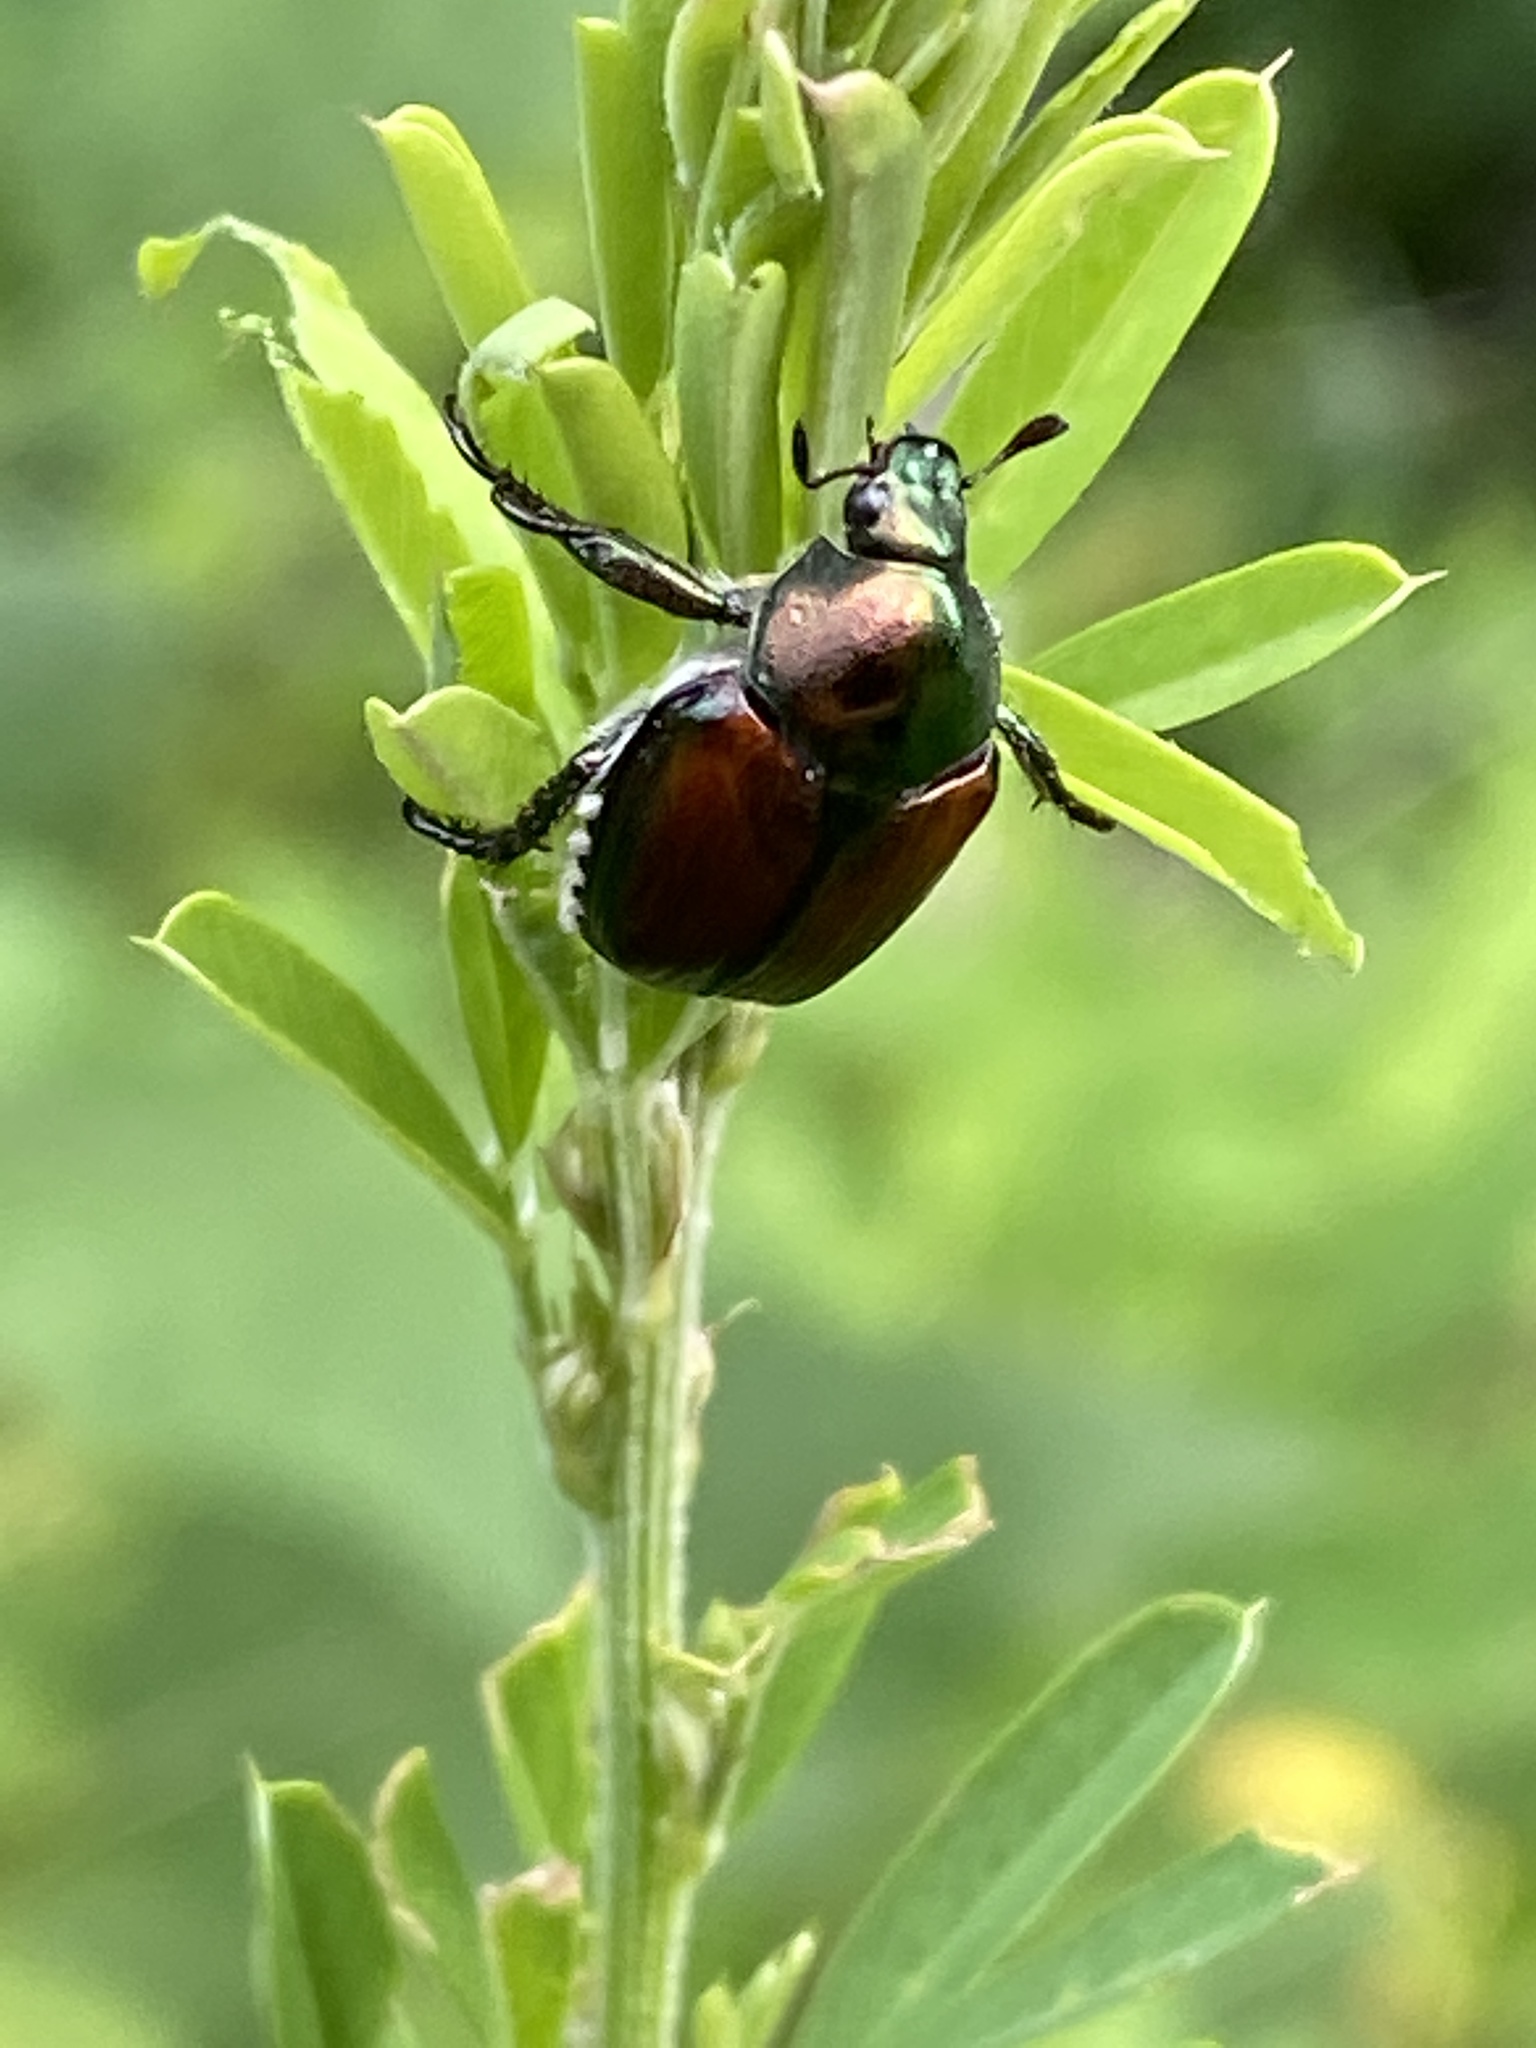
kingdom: Animalia
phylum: Arthropoda
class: Insecta
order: Coleoptera
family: Scarabaeidae
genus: Popillia
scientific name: Popillia japonica
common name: Japanese beetle
